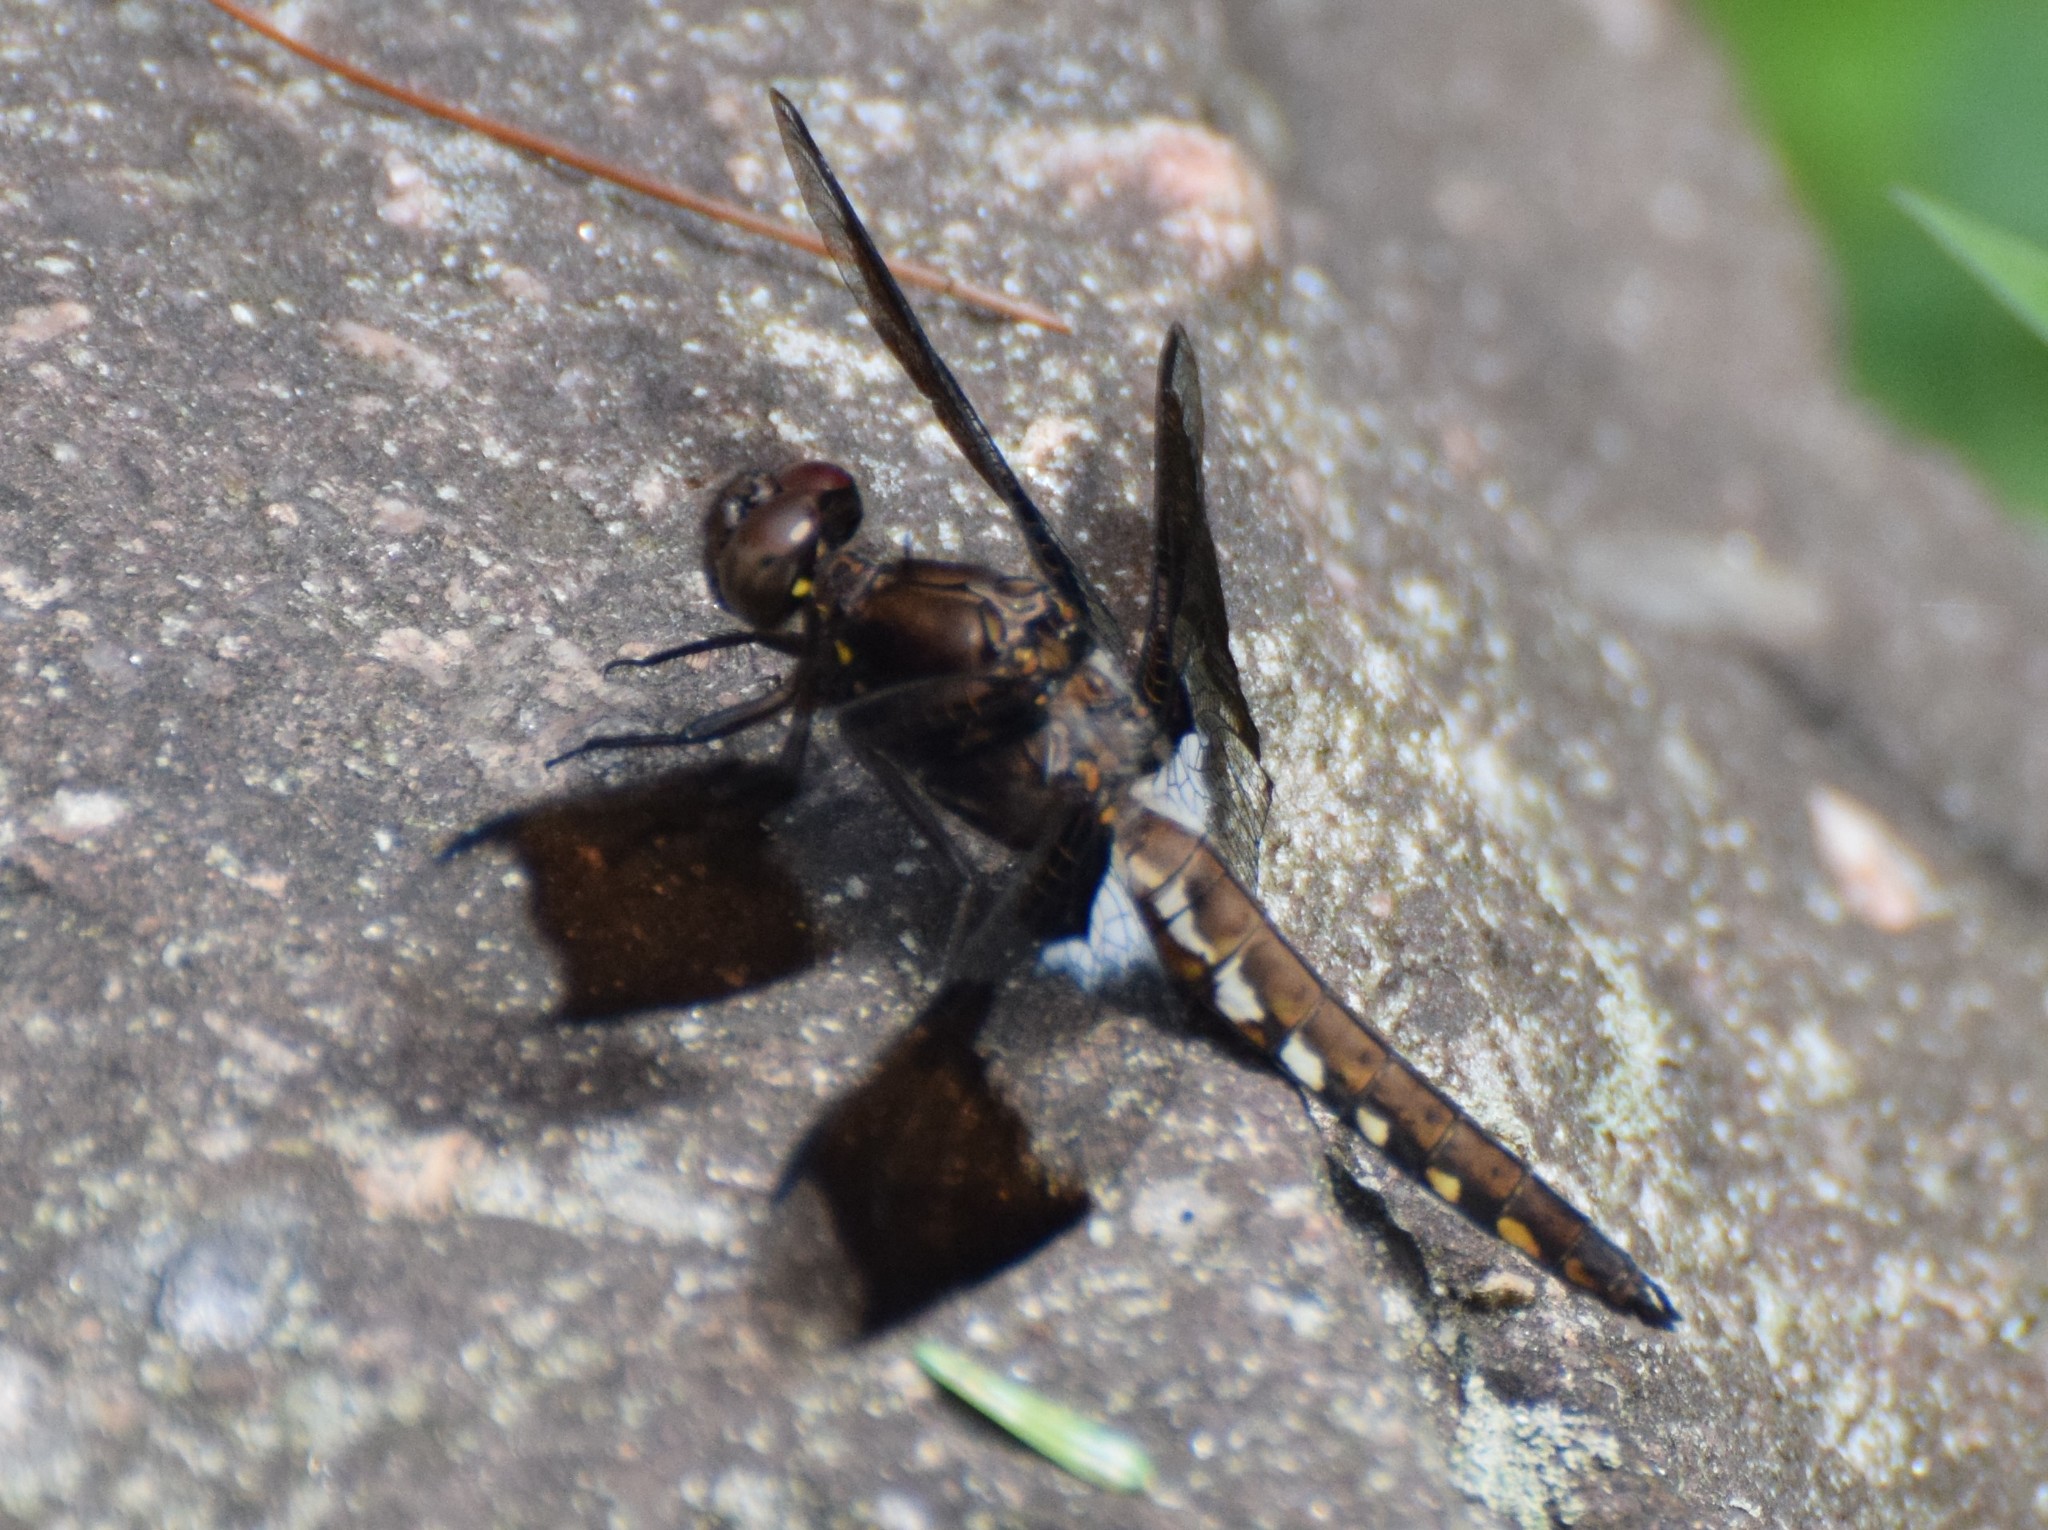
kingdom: Animalia
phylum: Arthropoda
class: Insecta
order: Odonata
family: Libellulidae
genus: Plathemis
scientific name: Plathemis lydia
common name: Common whitetail
